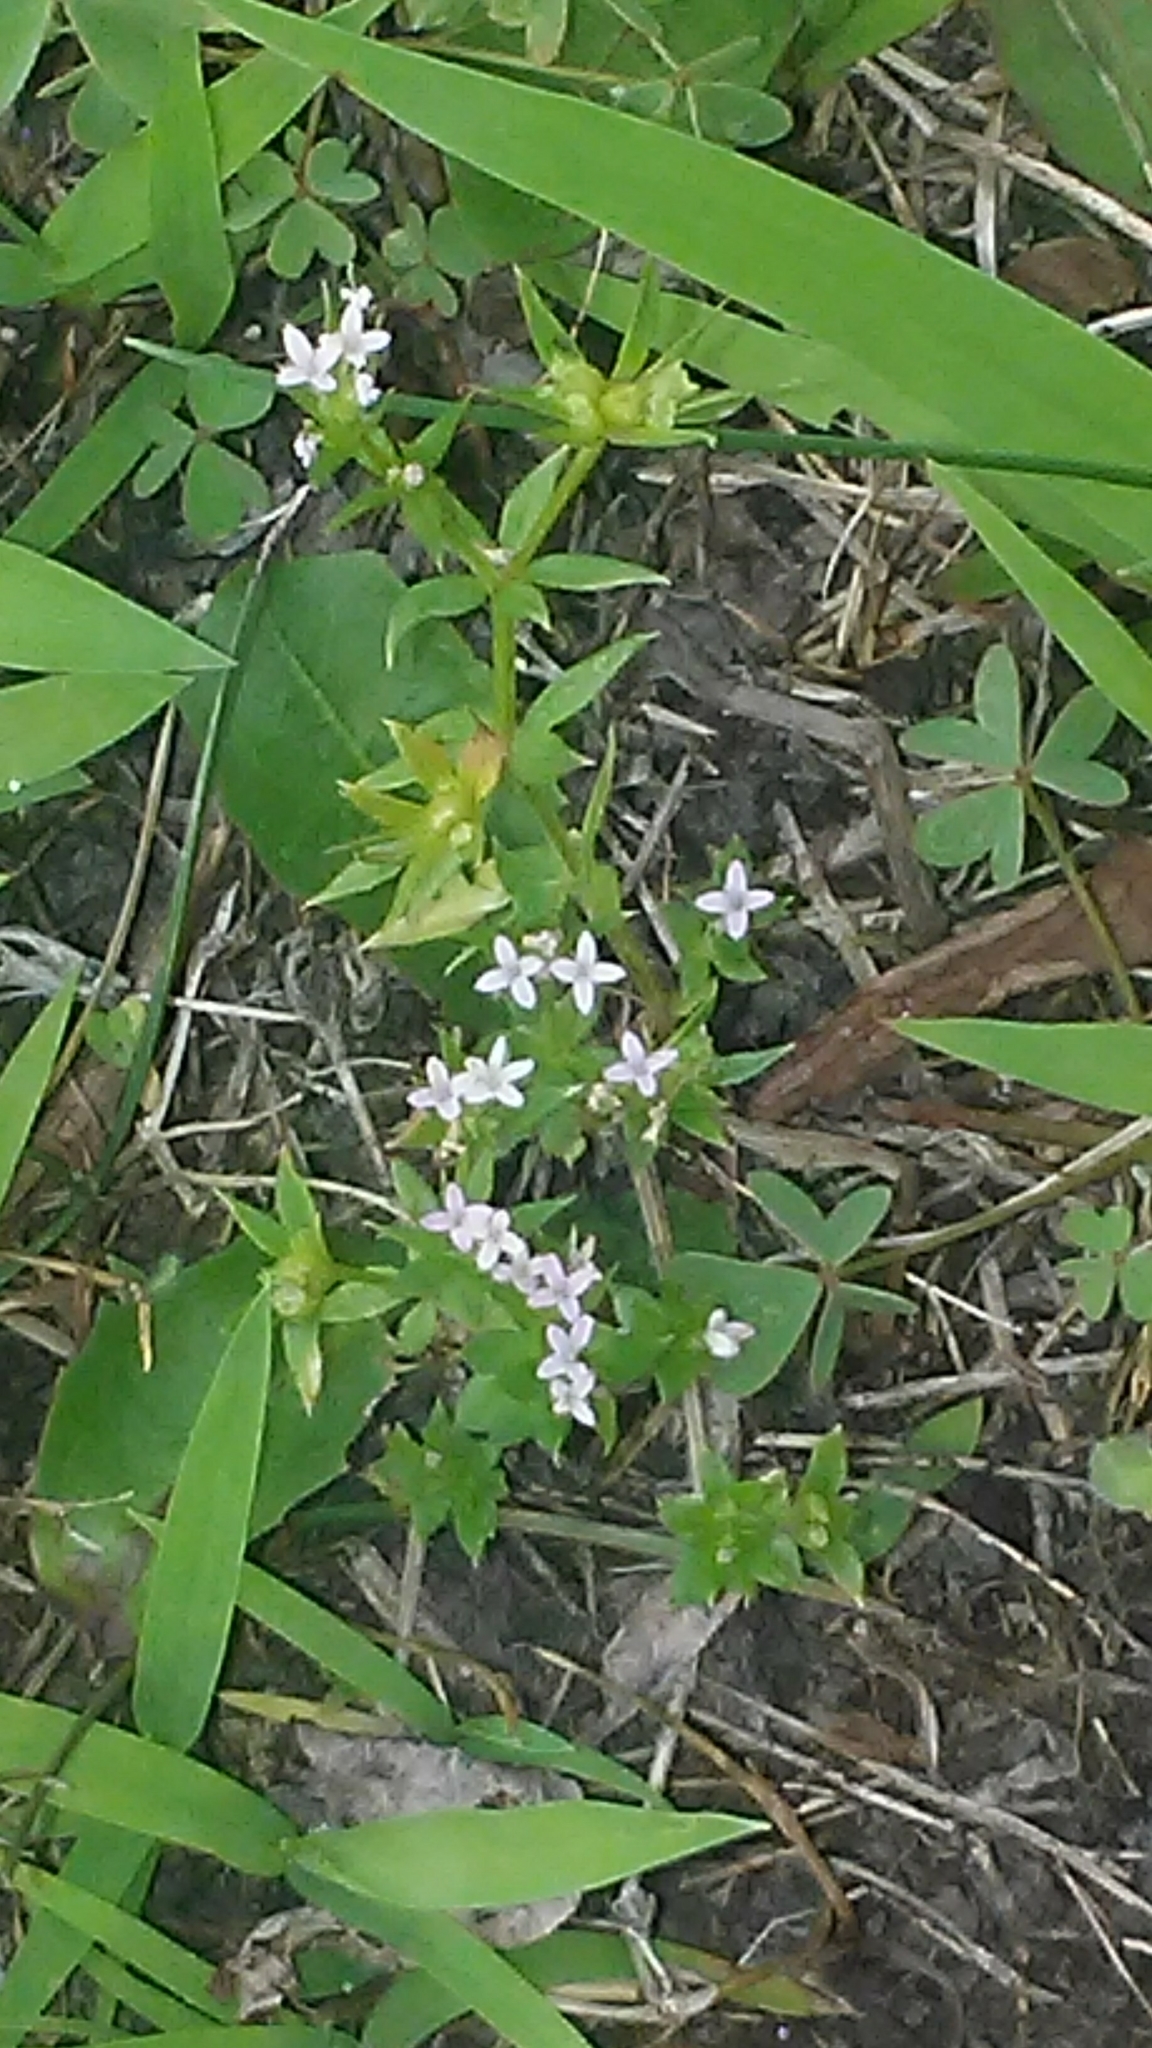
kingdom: Plantae
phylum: Tracheophyta
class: Magnoliopsida
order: Gentianales
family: Rubiaceae
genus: Sherardia
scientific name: Sherardia arvensis
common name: Field madder
